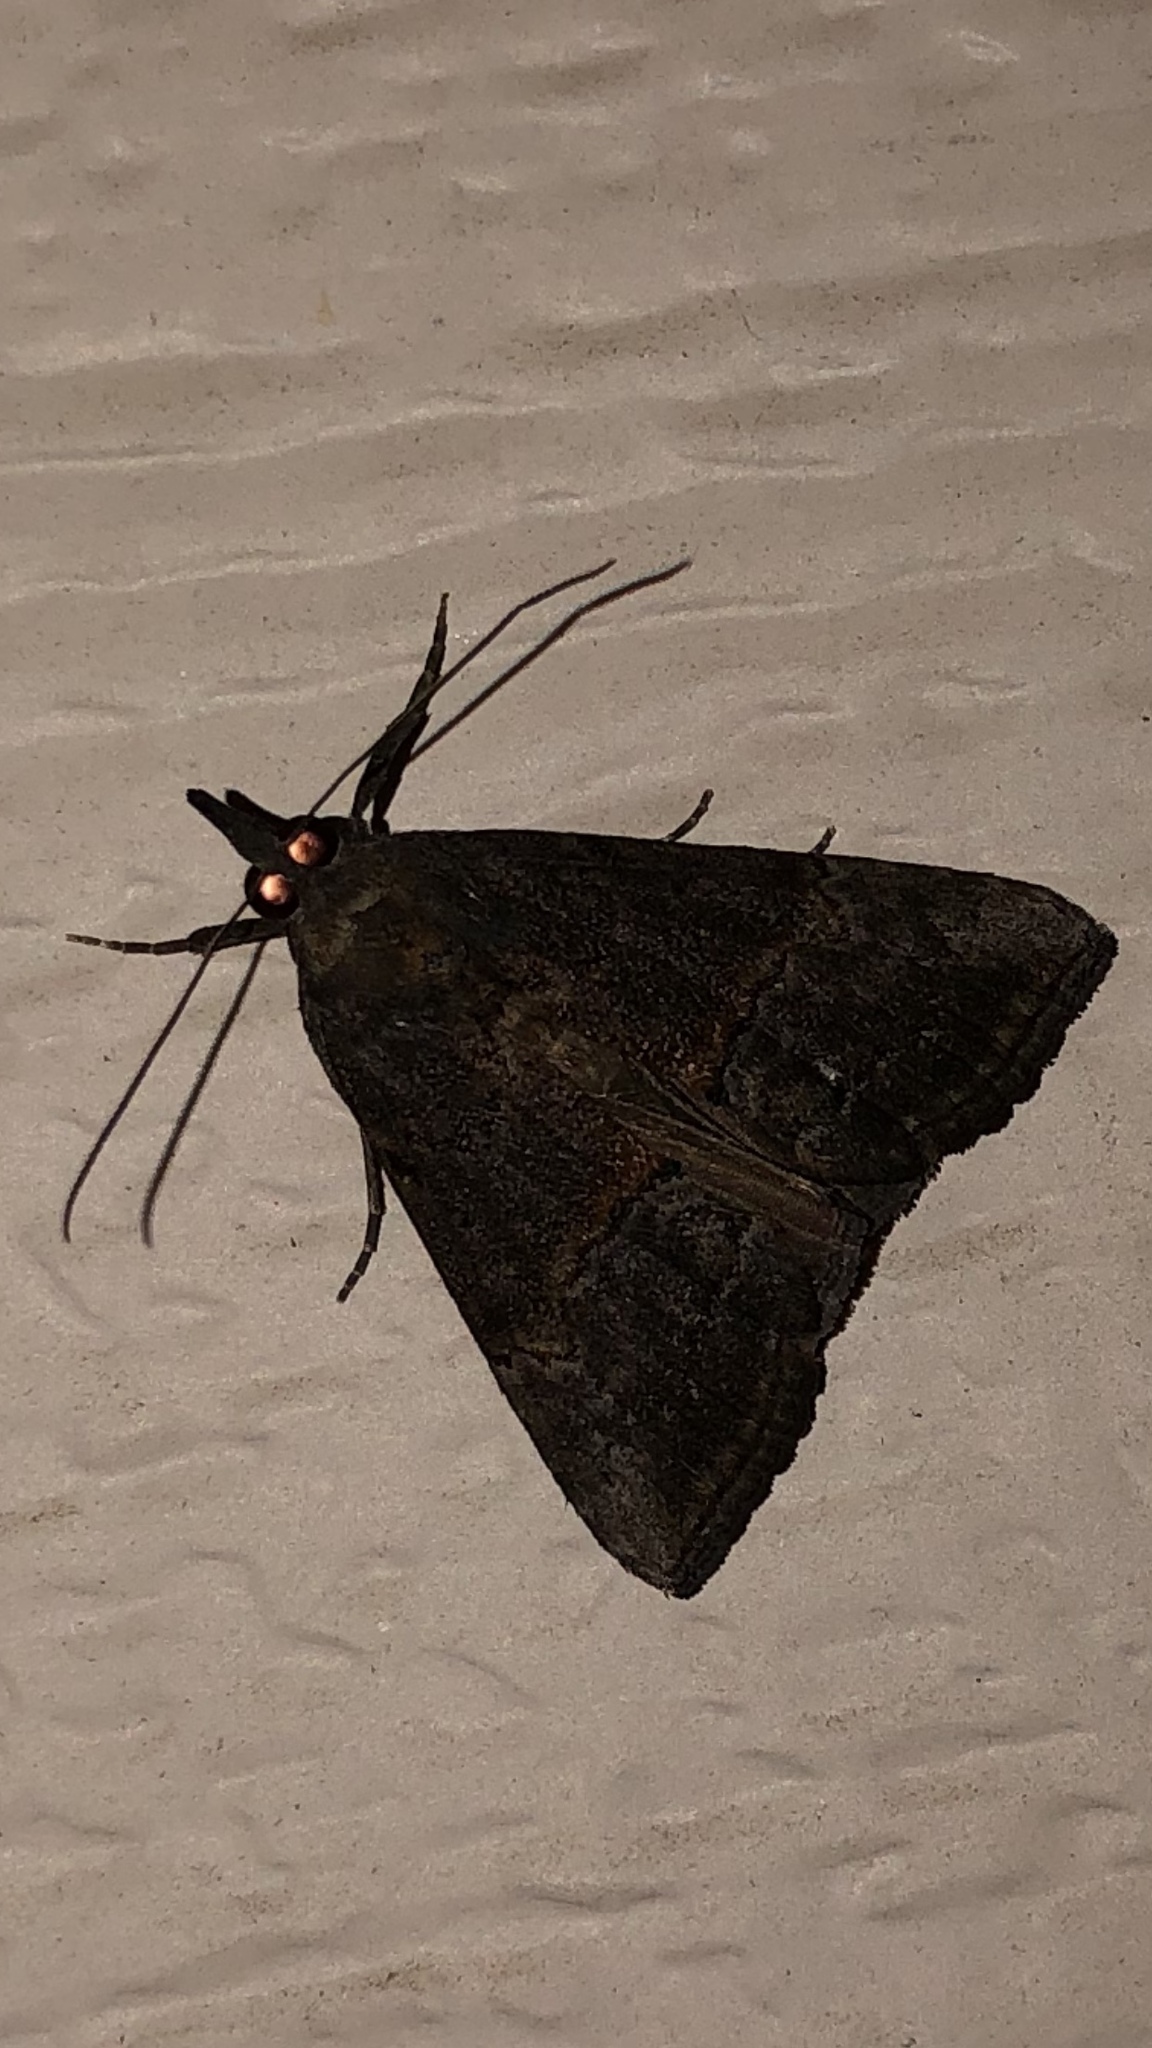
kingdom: Animalia
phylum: Arthropoda
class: Insecta
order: Lepidoptera
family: Erebidae
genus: Hypena
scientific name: Hypena scabra
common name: Green cloverworm
